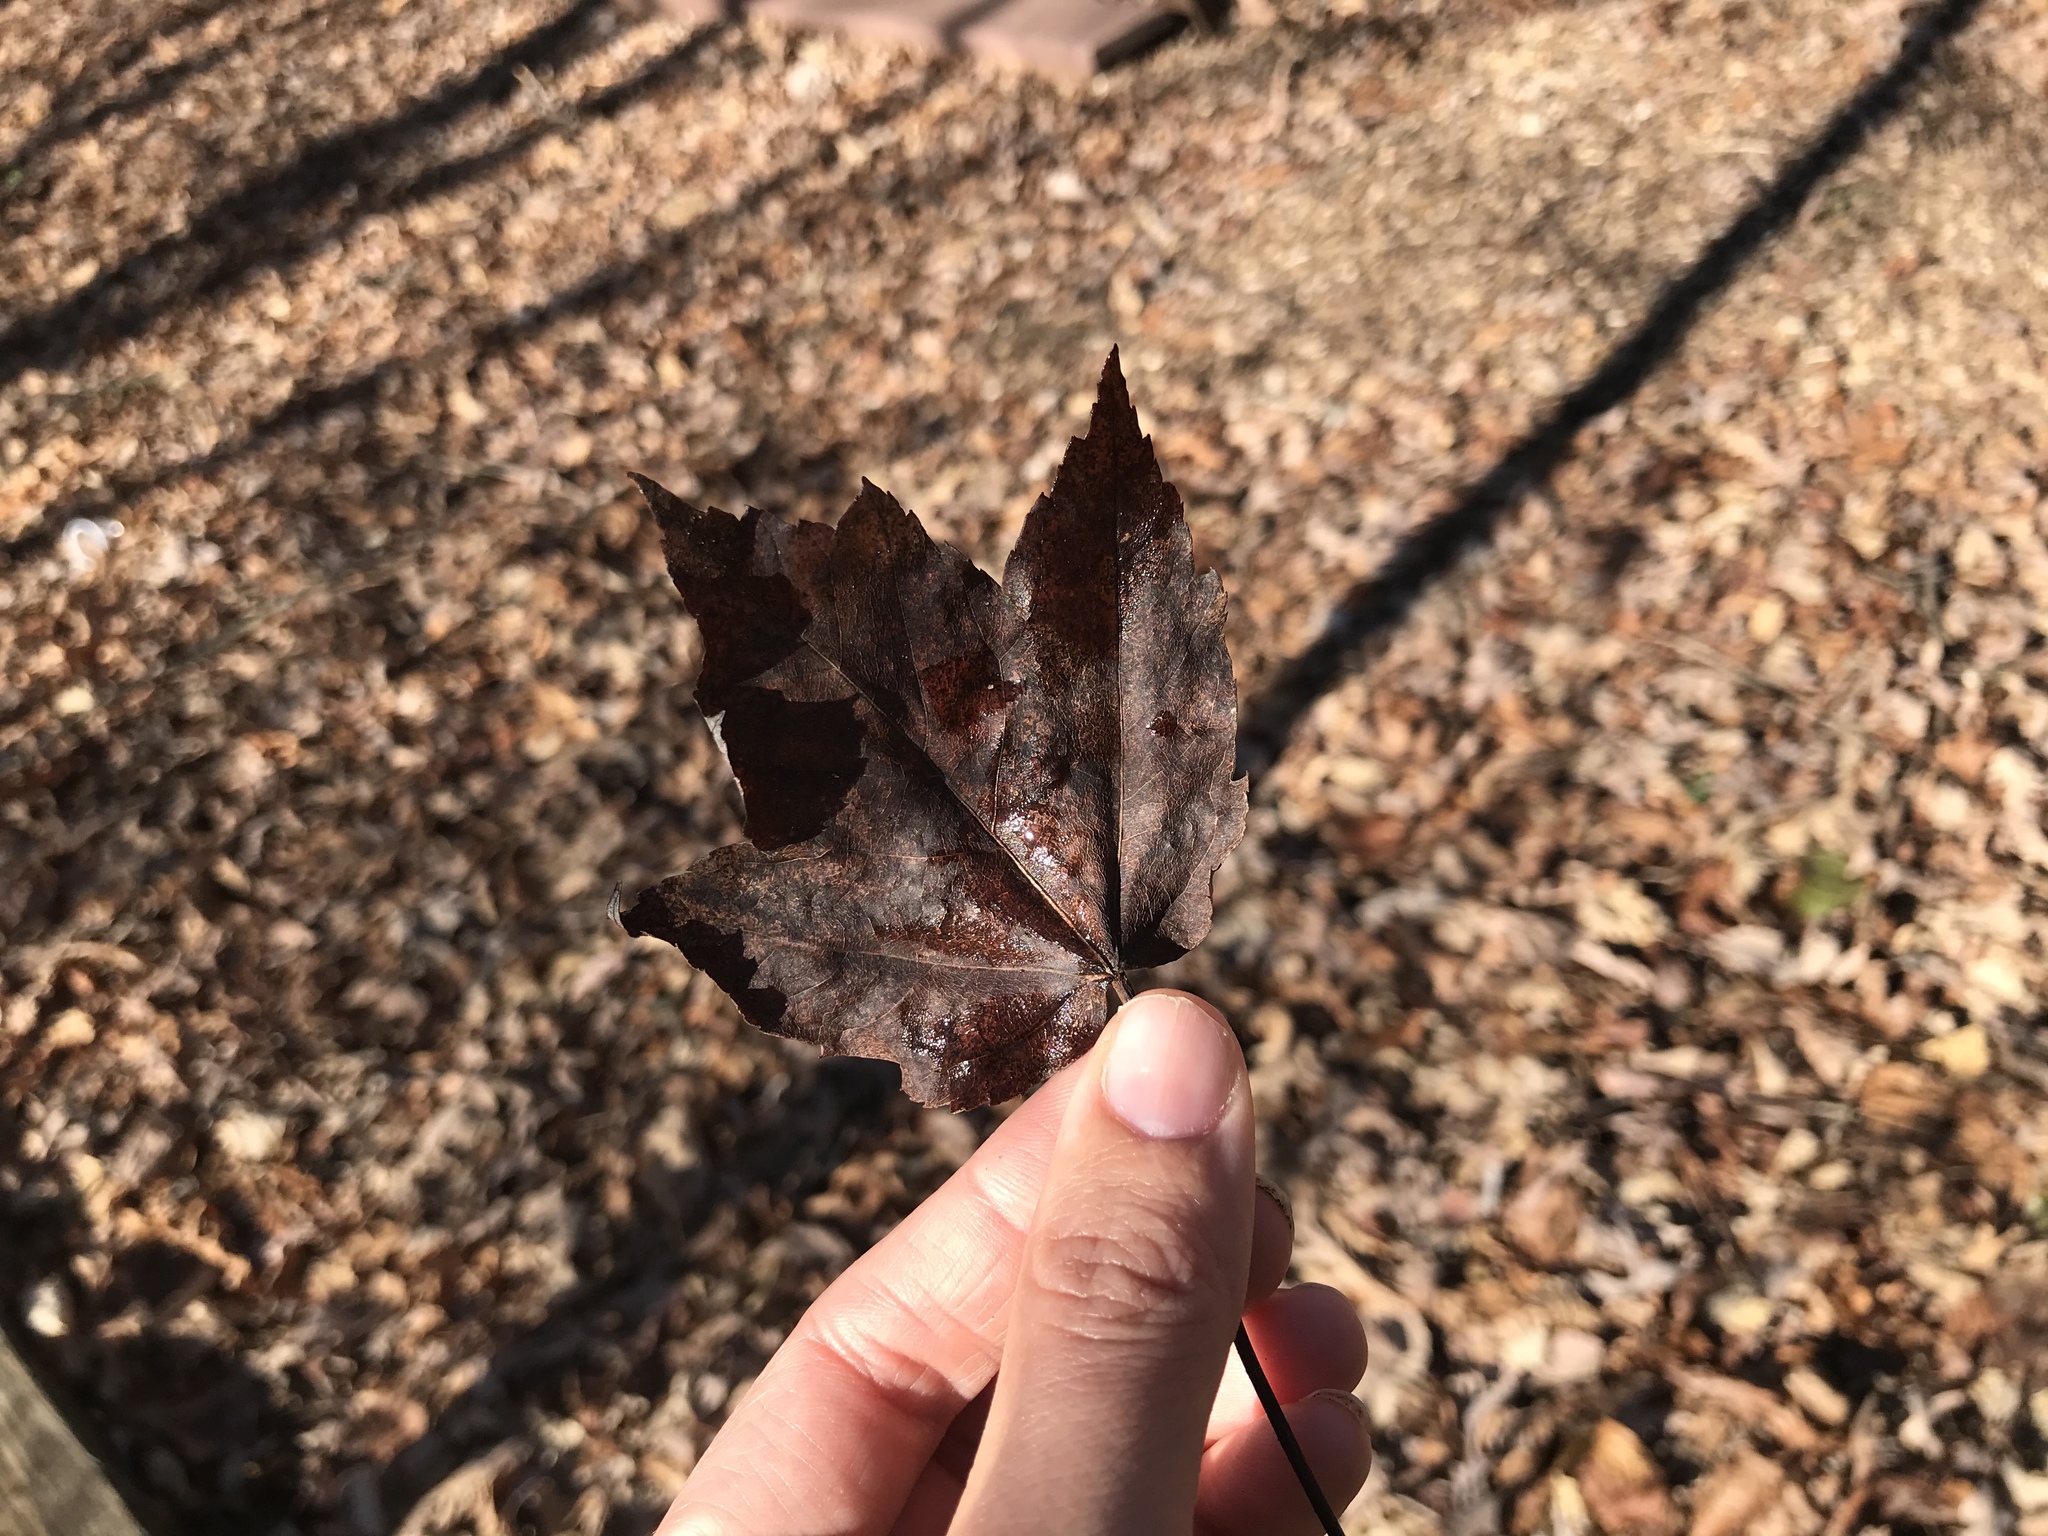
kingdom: Plantae
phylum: Tracheophyta
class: Magnoliopsida
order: Sapindales
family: Sapindaceae
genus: Acer
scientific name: Acer rubrum
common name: Red maple
